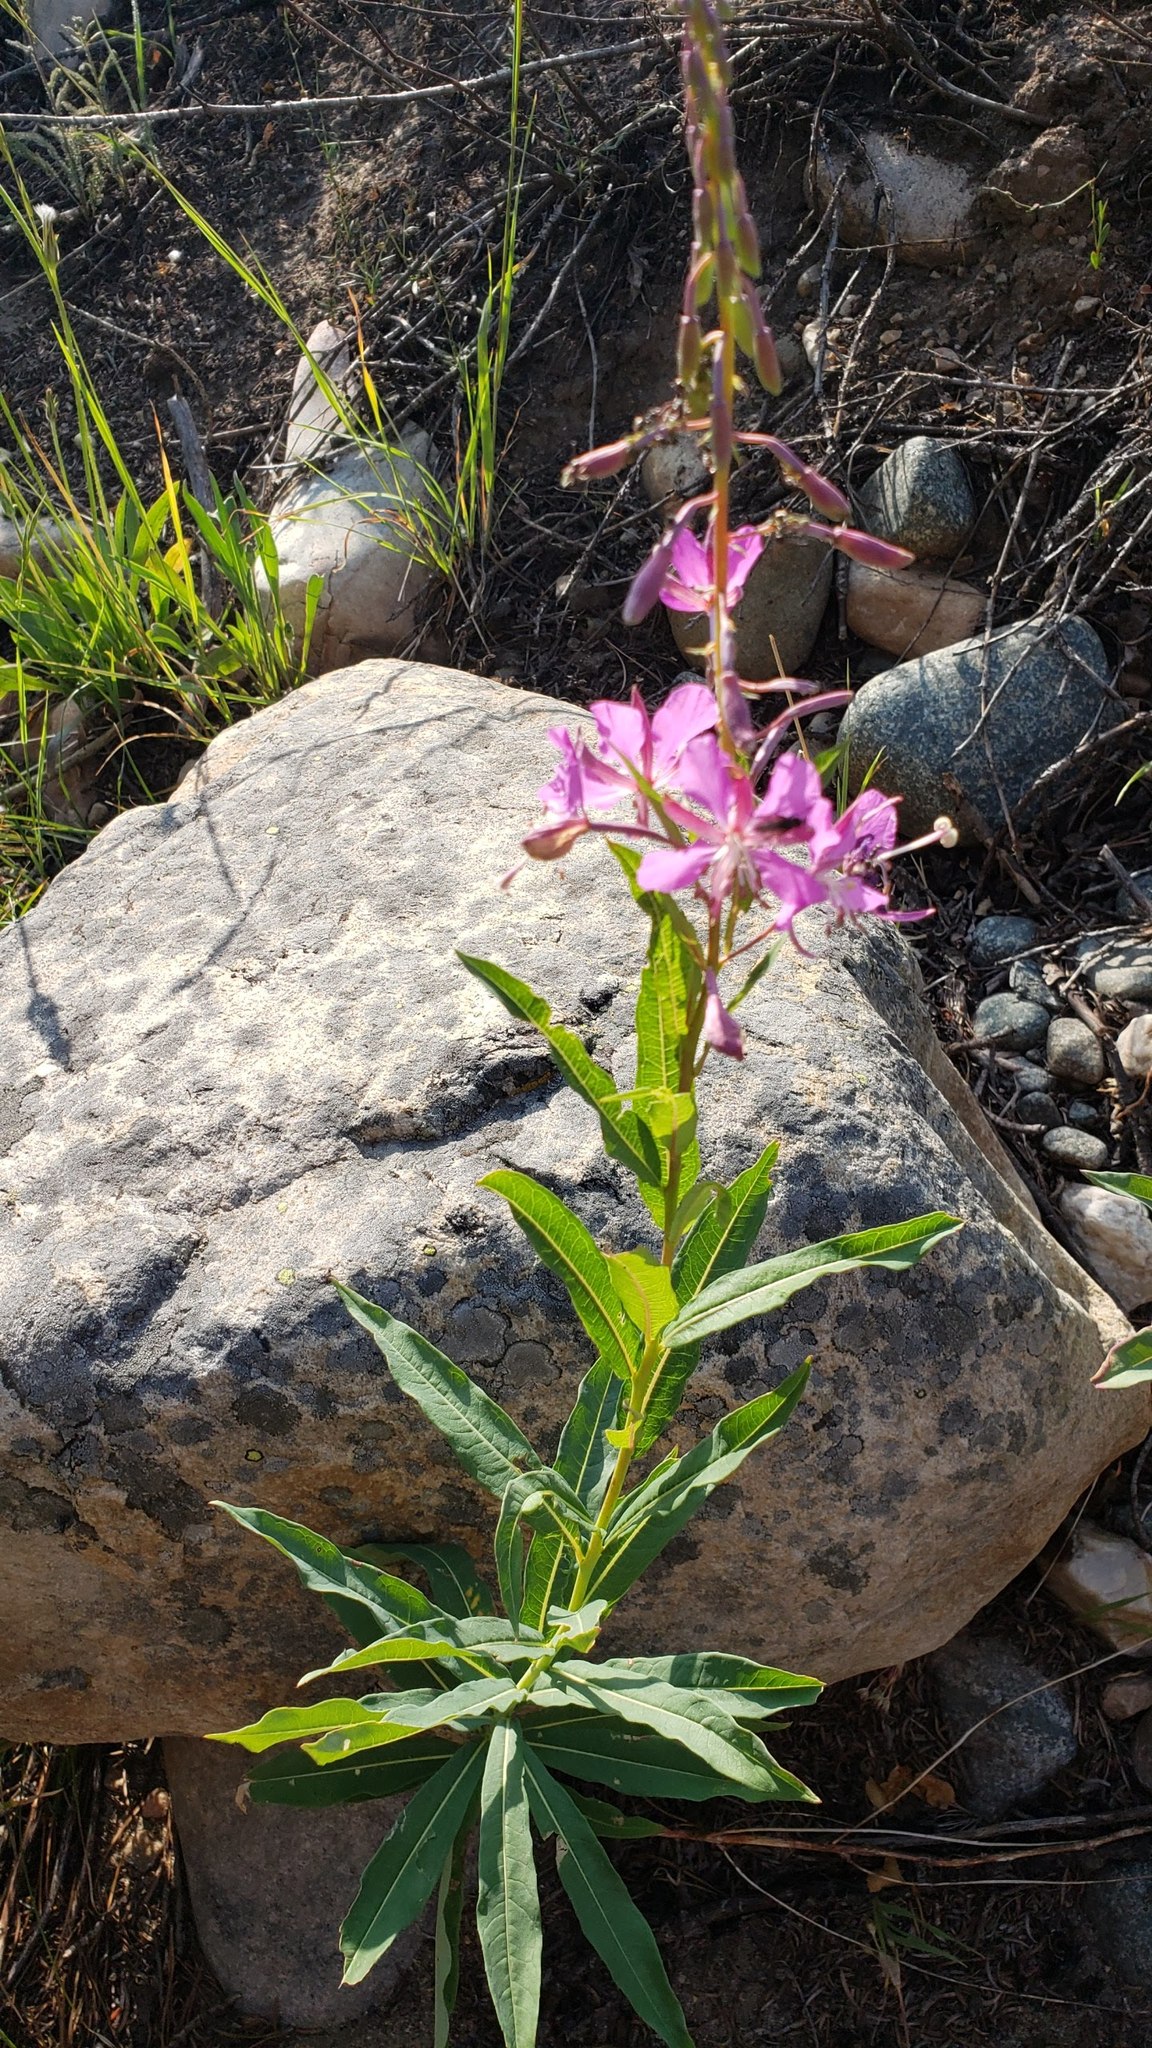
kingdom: Plantae
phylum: Tracheophyta
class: Magnoliopsida
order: Myrtales
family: Onagraceae
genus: Chamaenerion
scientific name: Chamaenerion angustifolium
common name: Fireweed
